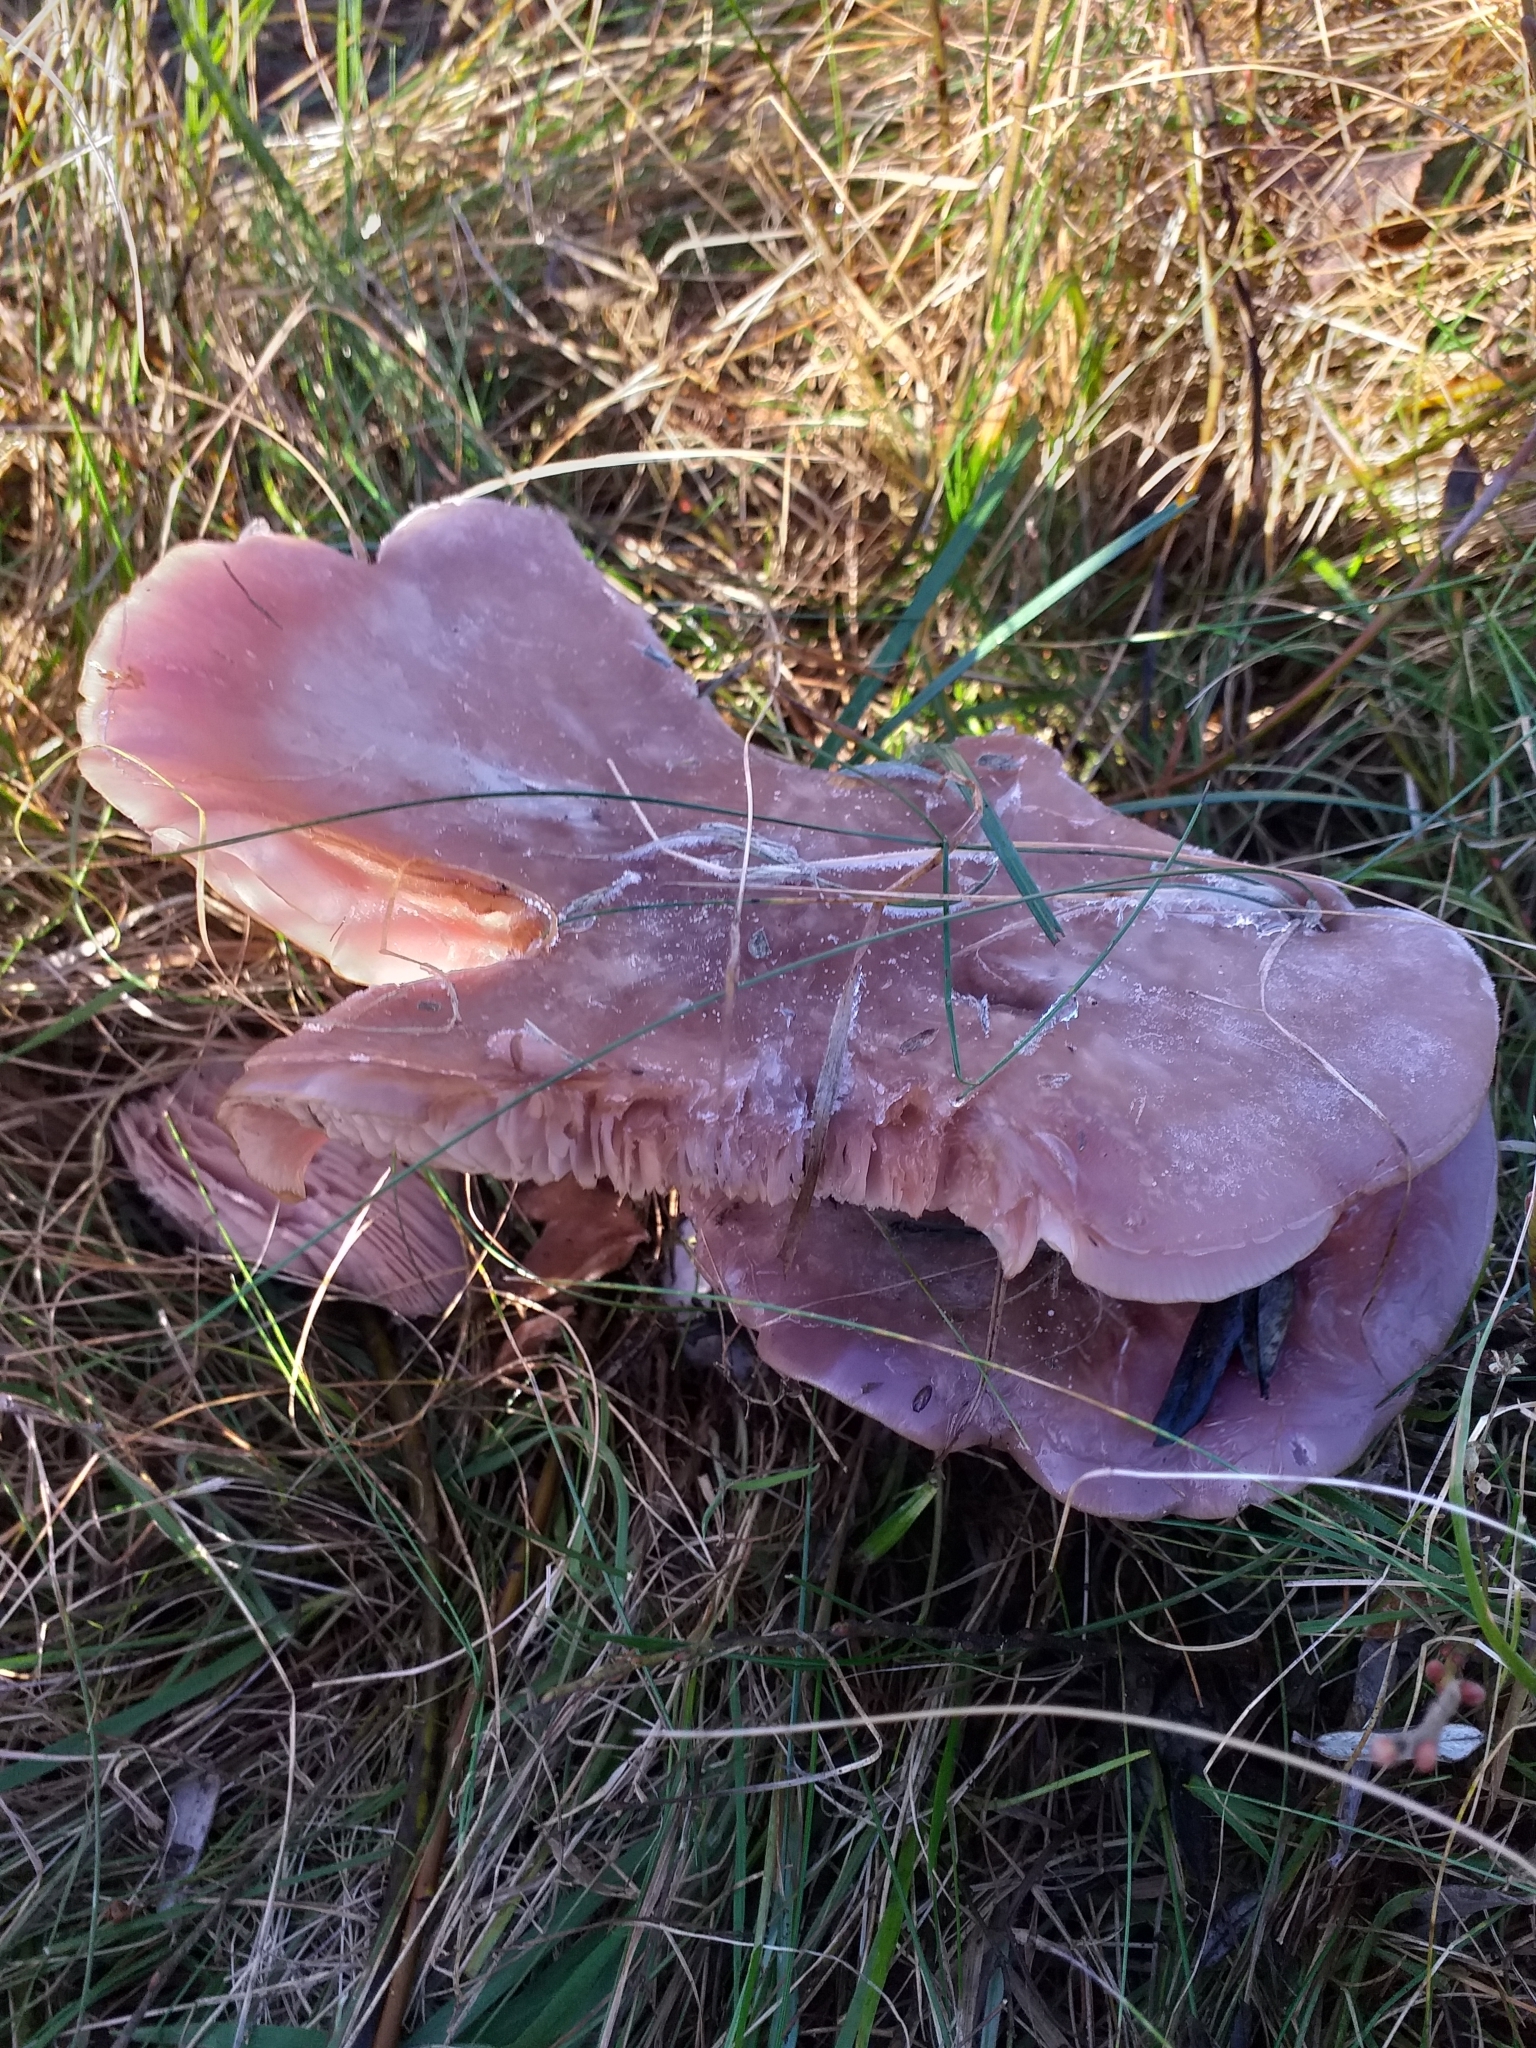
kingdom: Fungi
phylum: Basidiomycota
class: Agaricomycetes
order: Agaricales
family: Tricholomataceae
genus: Collybia
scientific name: Collybia
